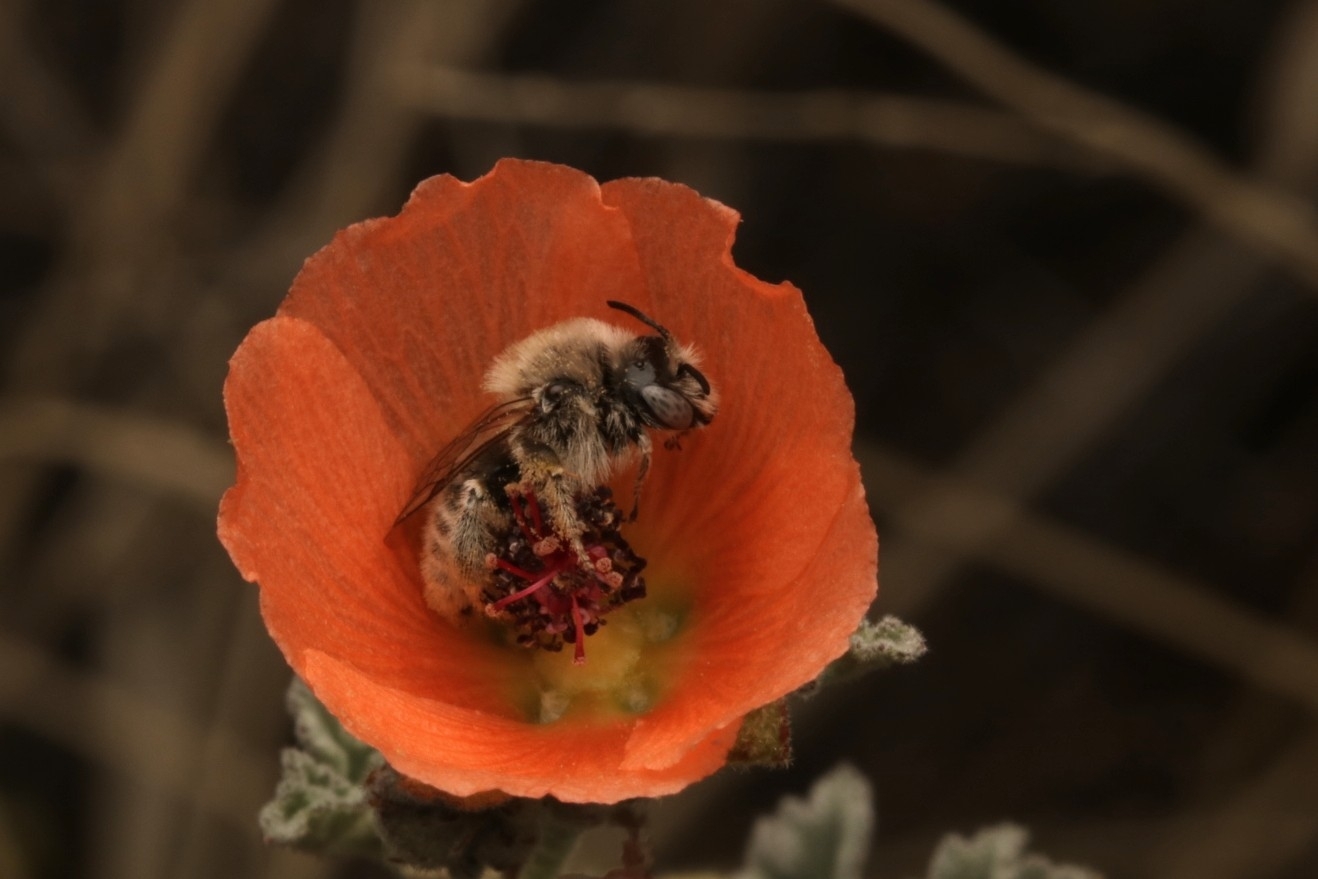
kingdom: Animalia
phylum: Arthropoda
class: Insecta
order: Hymenoptera
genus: Coquillettapis
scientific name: Coquillettapis
